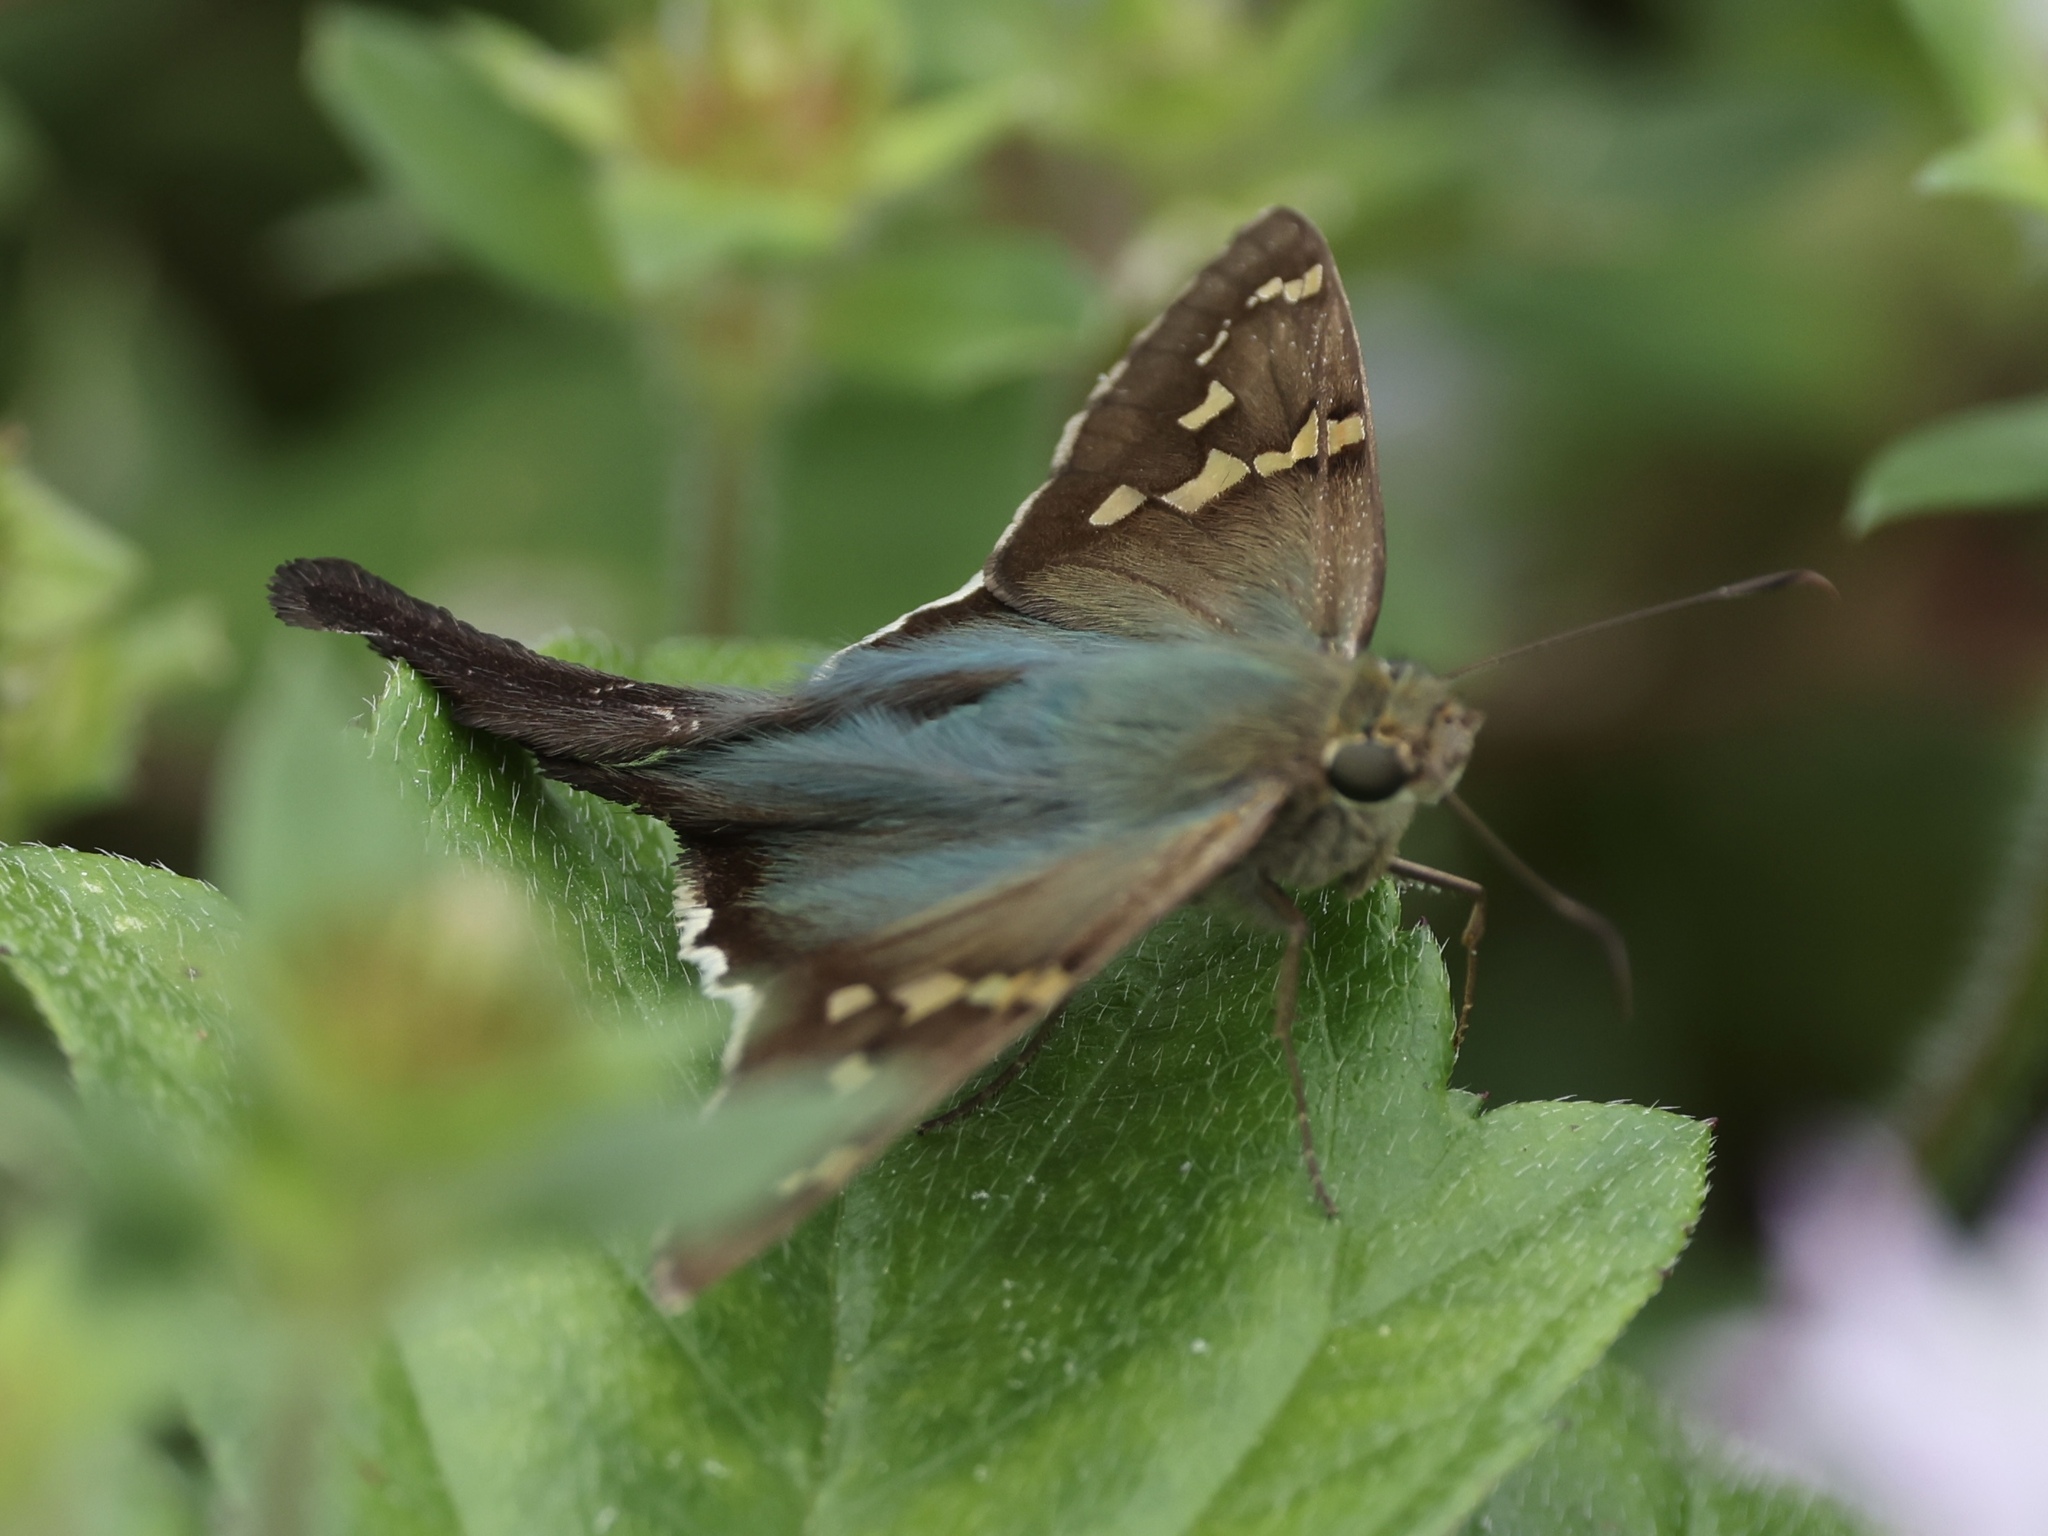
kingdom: Animalia
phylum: Arthropoda
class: Insecta
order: Lepidoptera
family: Hesperiidae
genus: Urbanus
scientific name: Urbanus proteus
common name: Long-tailed skipper
